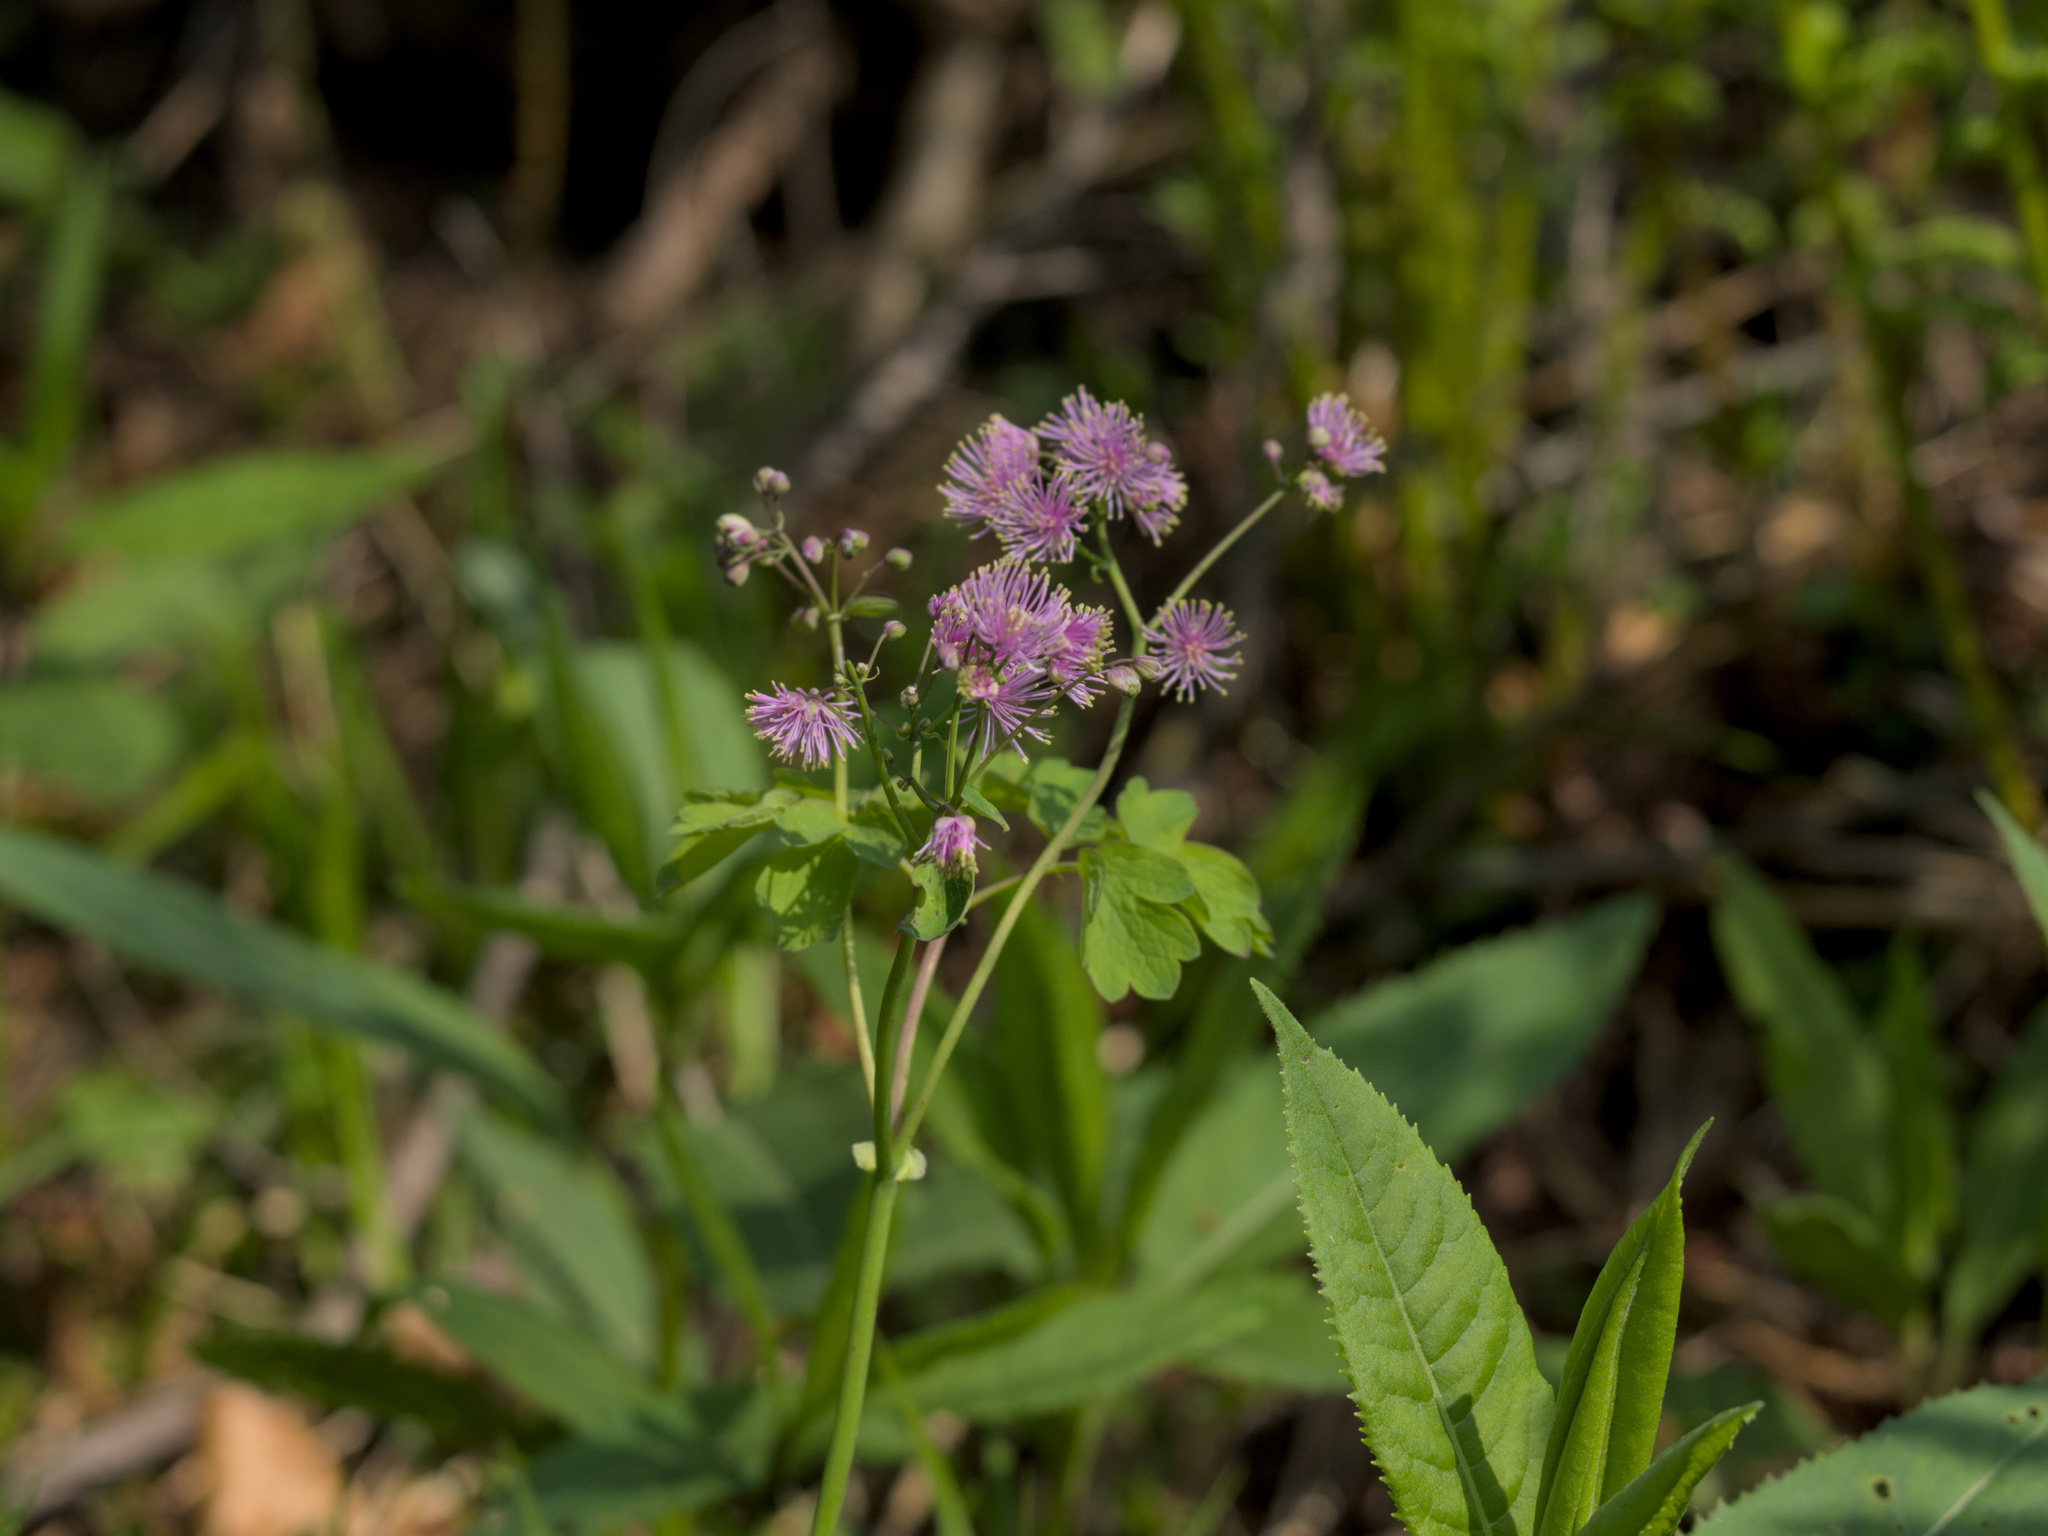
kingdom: Plantae
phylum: Tracheophyta
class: Magnoliopsida
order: Ranunculales
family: Ranunculaceae
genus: Thalictrum
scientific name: Thalictrum aquilegiifolium
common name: French meadow-rue
